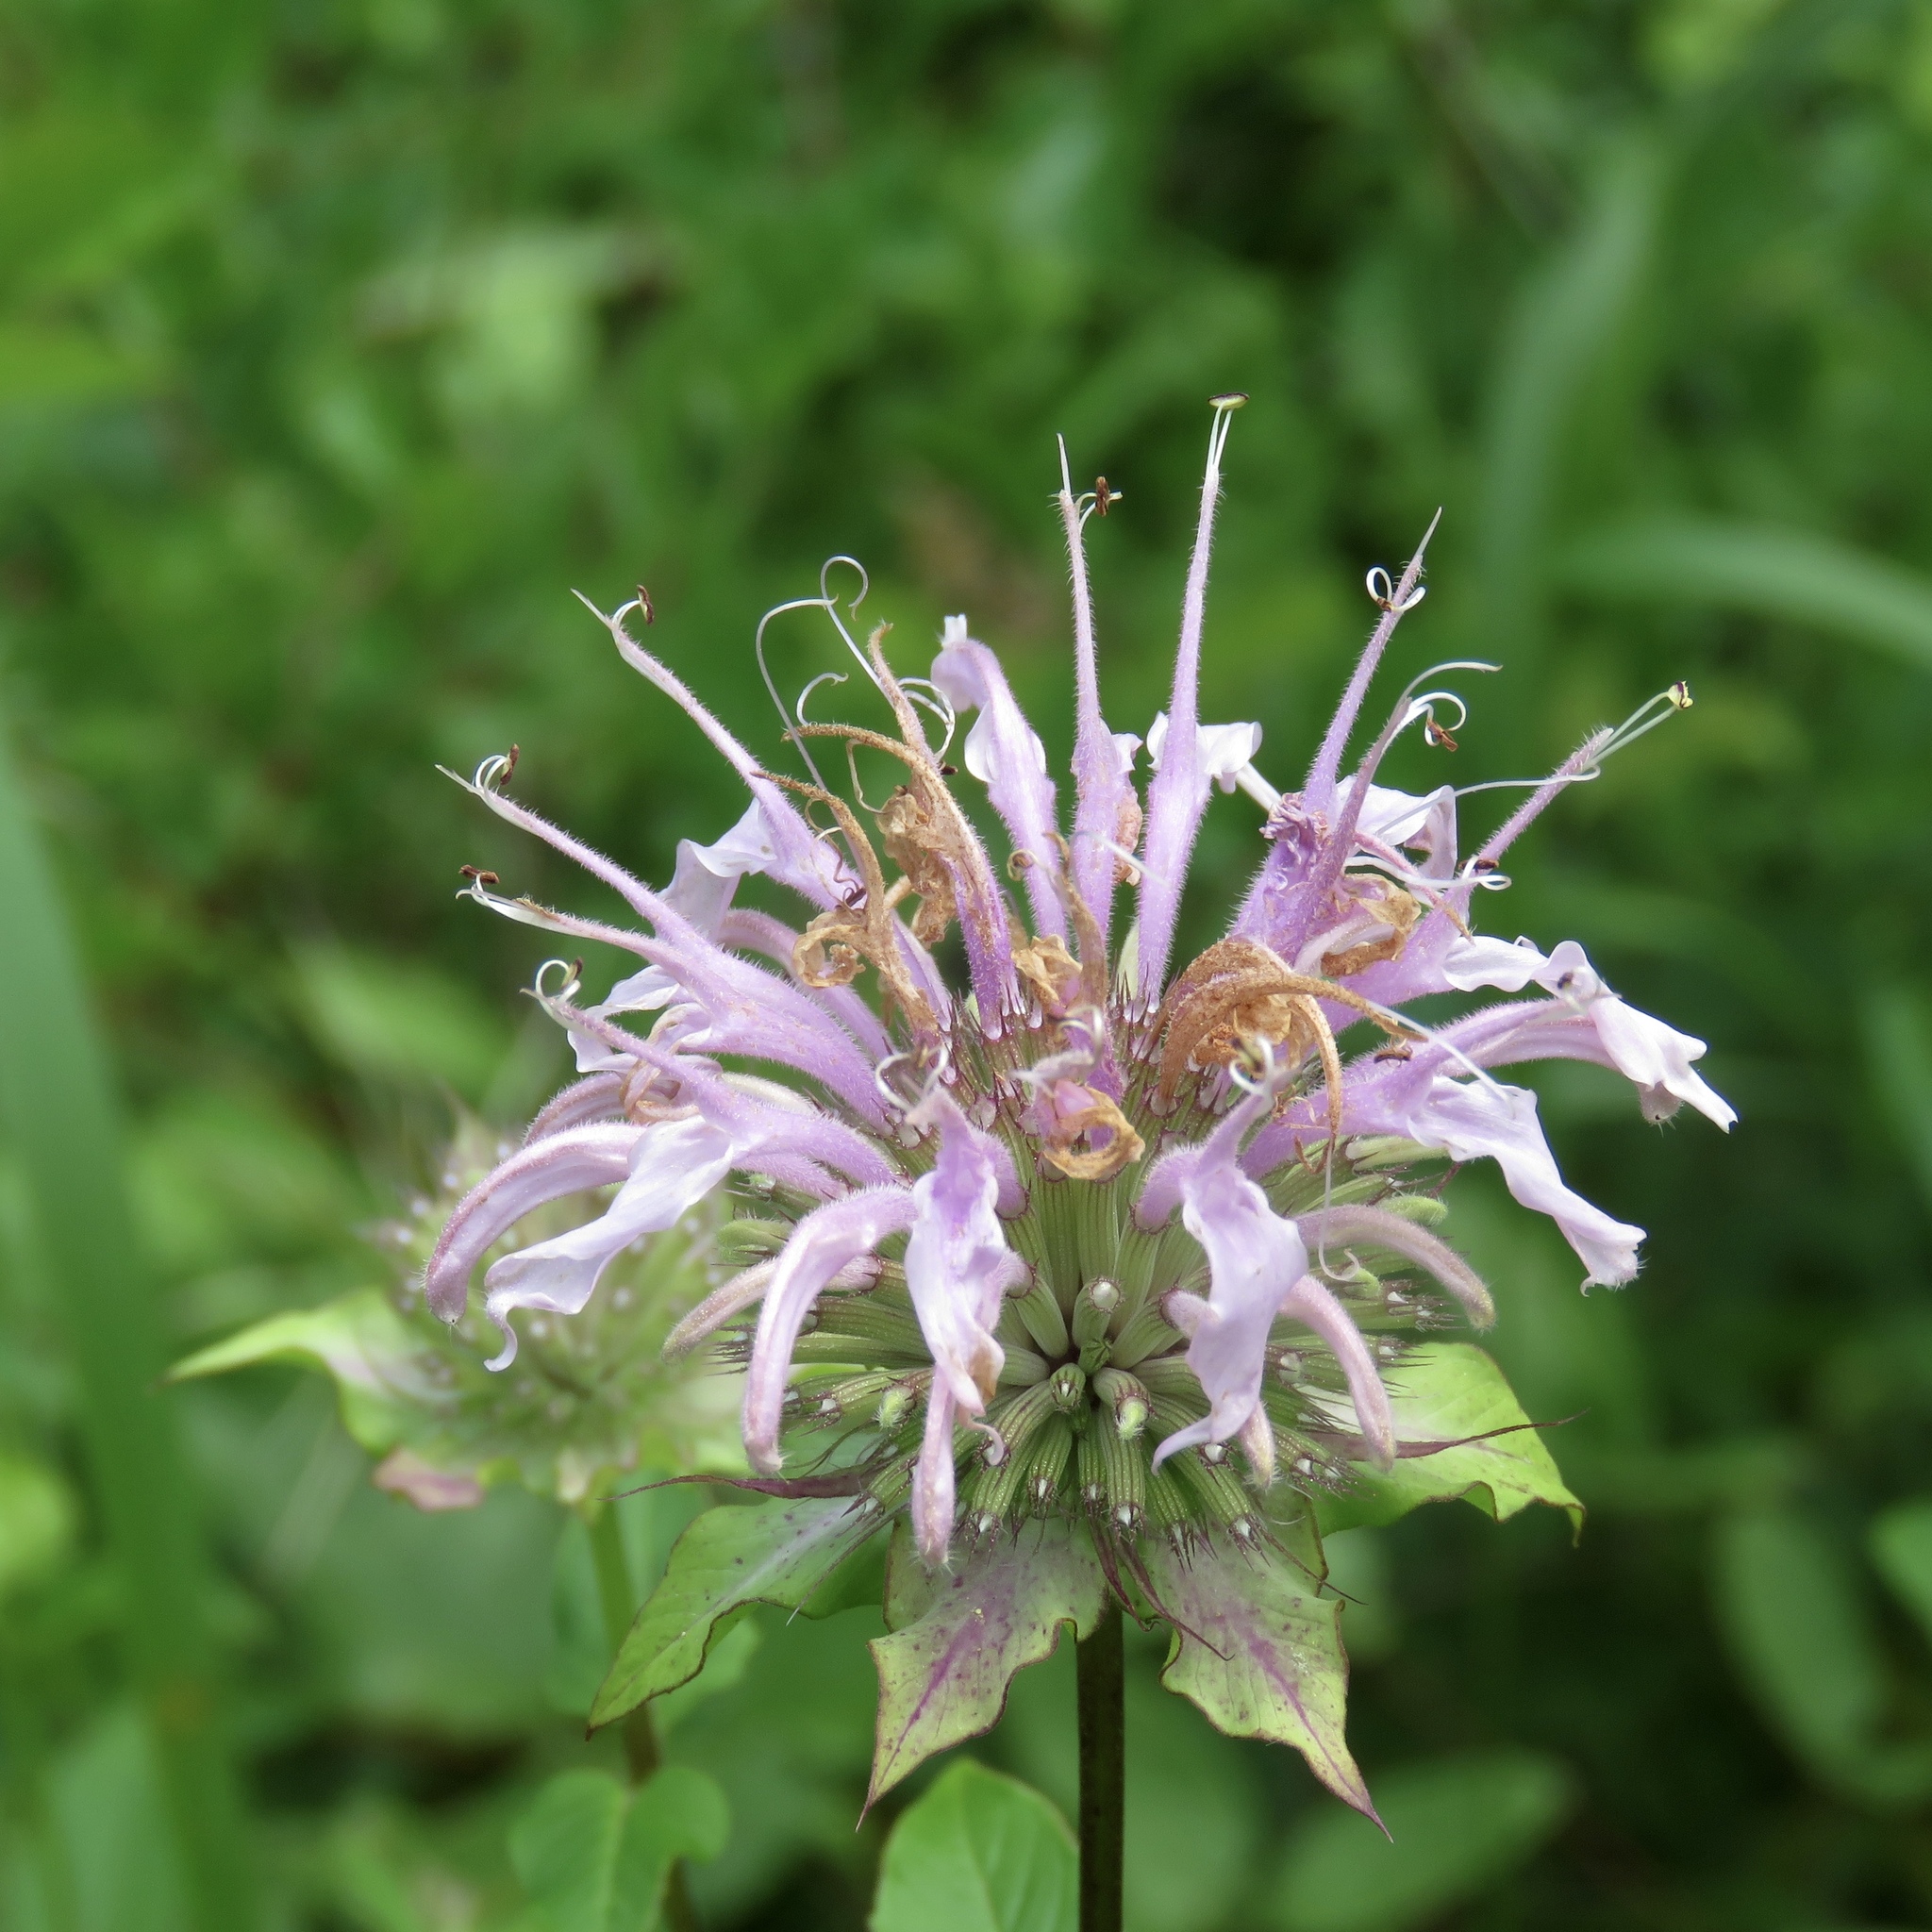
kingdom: Plantae
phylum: Tracheophyta
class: Magnoliopsida
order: Lamiales
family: Lamiaceae
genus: Monarda
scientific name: Monarda fistulosa
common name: Purple beebalm
